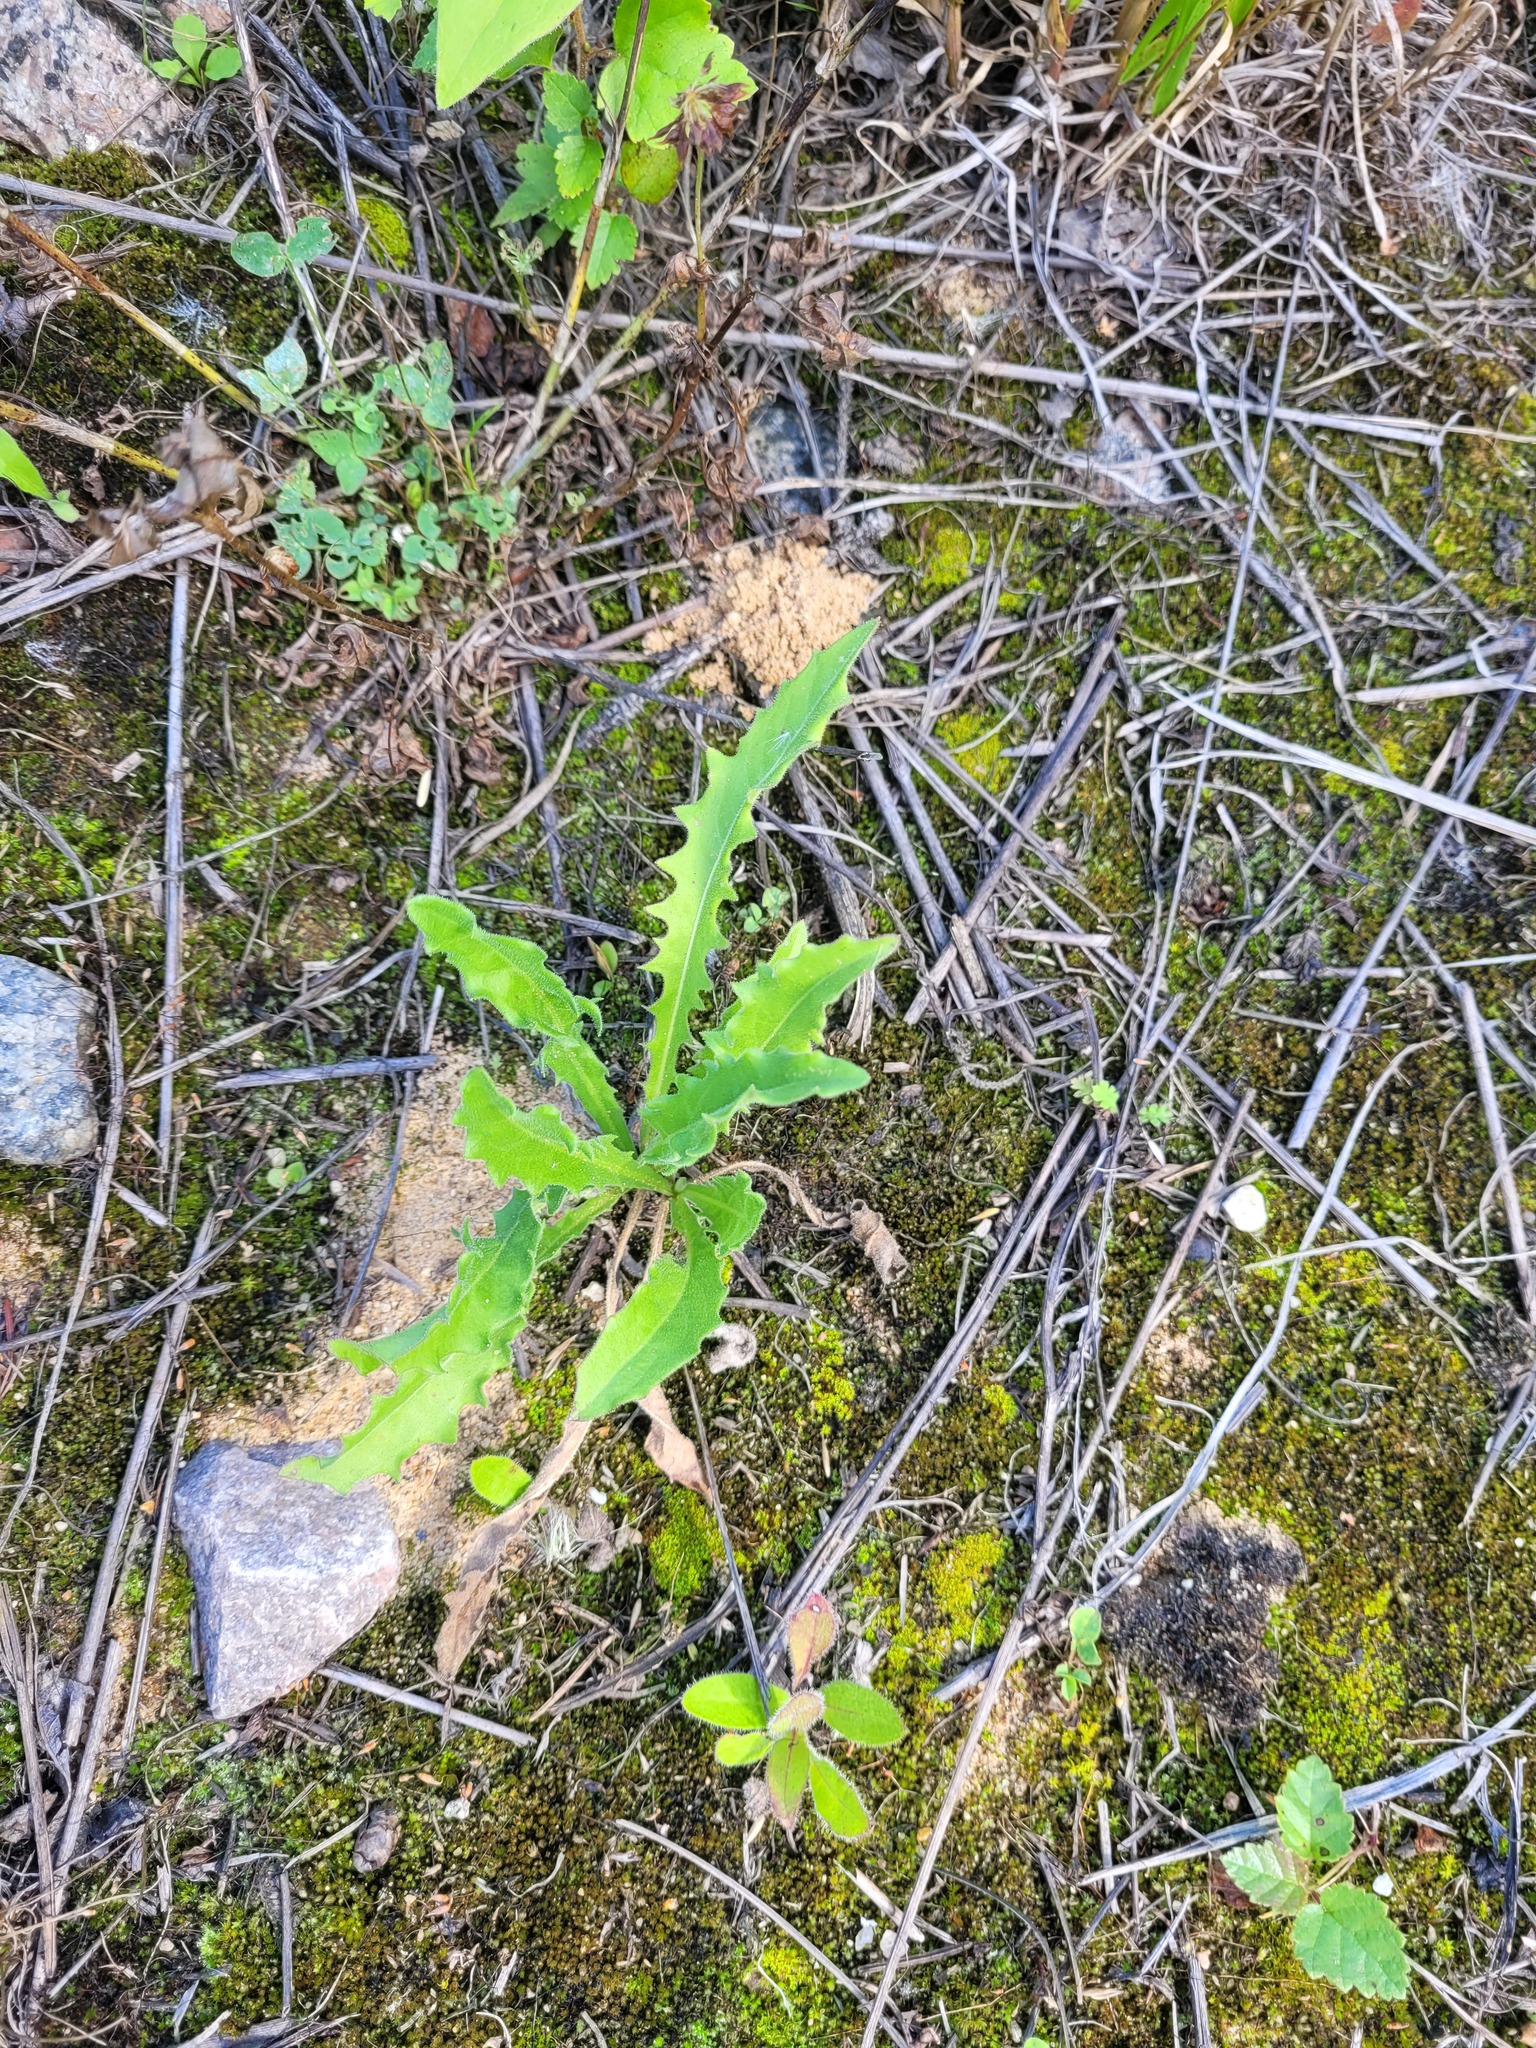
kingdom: Plantae
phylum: Tracheophyta
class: Magnoliopsida
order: Asterales
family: Asteraceae
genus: Leontodon
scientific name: Leontodon hispidus
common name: Rough hawkbit
